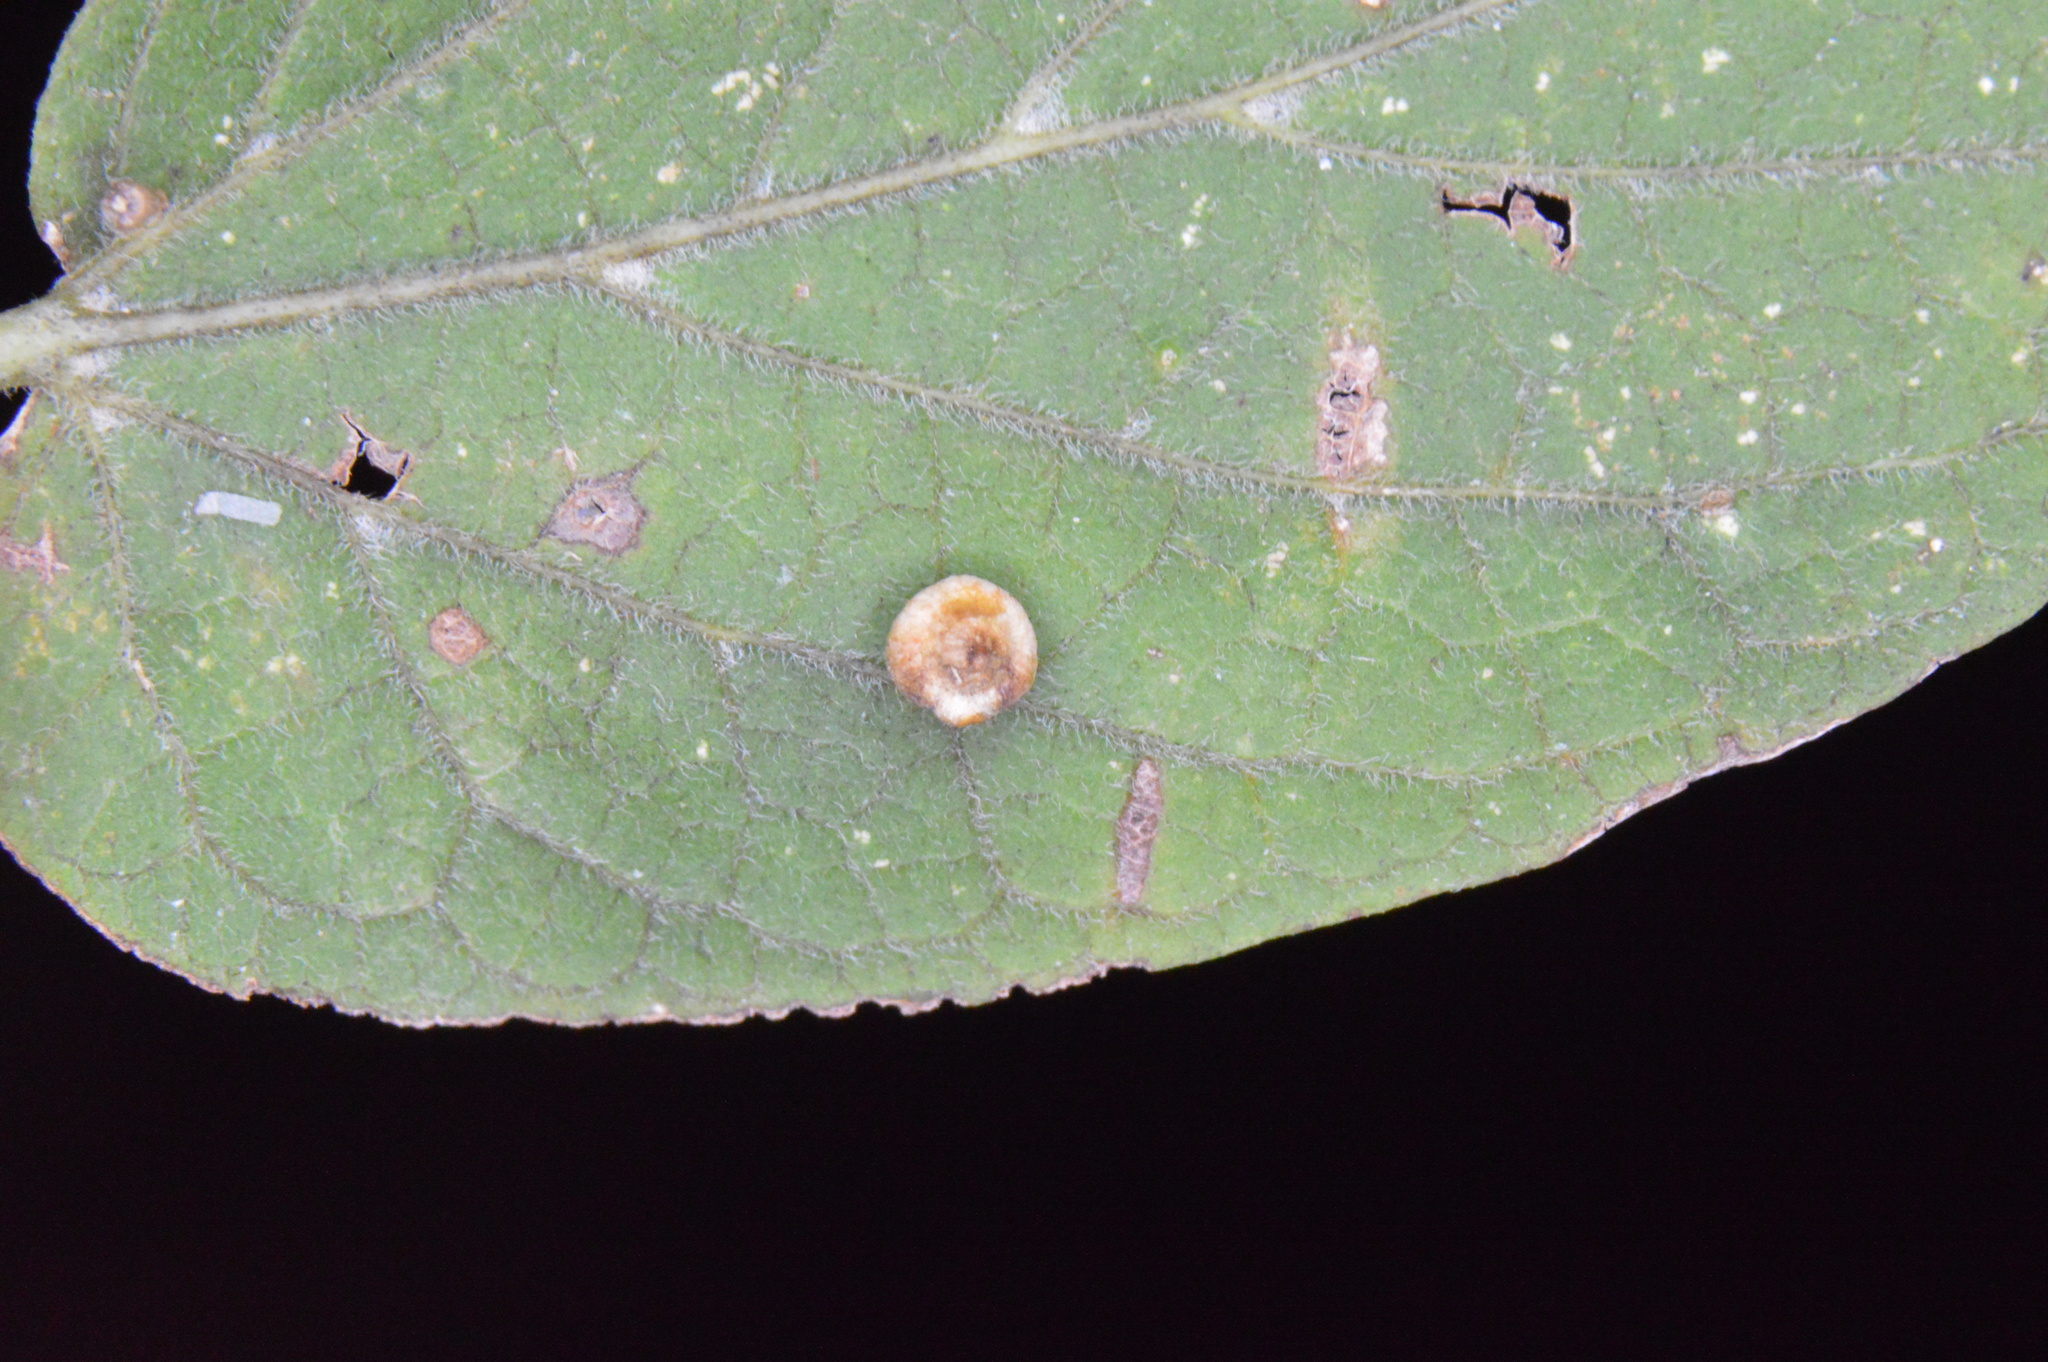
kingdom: Animalia
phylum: Arthropoda
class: Insecta
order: Diptera
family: Cecidomyiidae
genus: Celticecis
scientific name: Celticecis globosa
